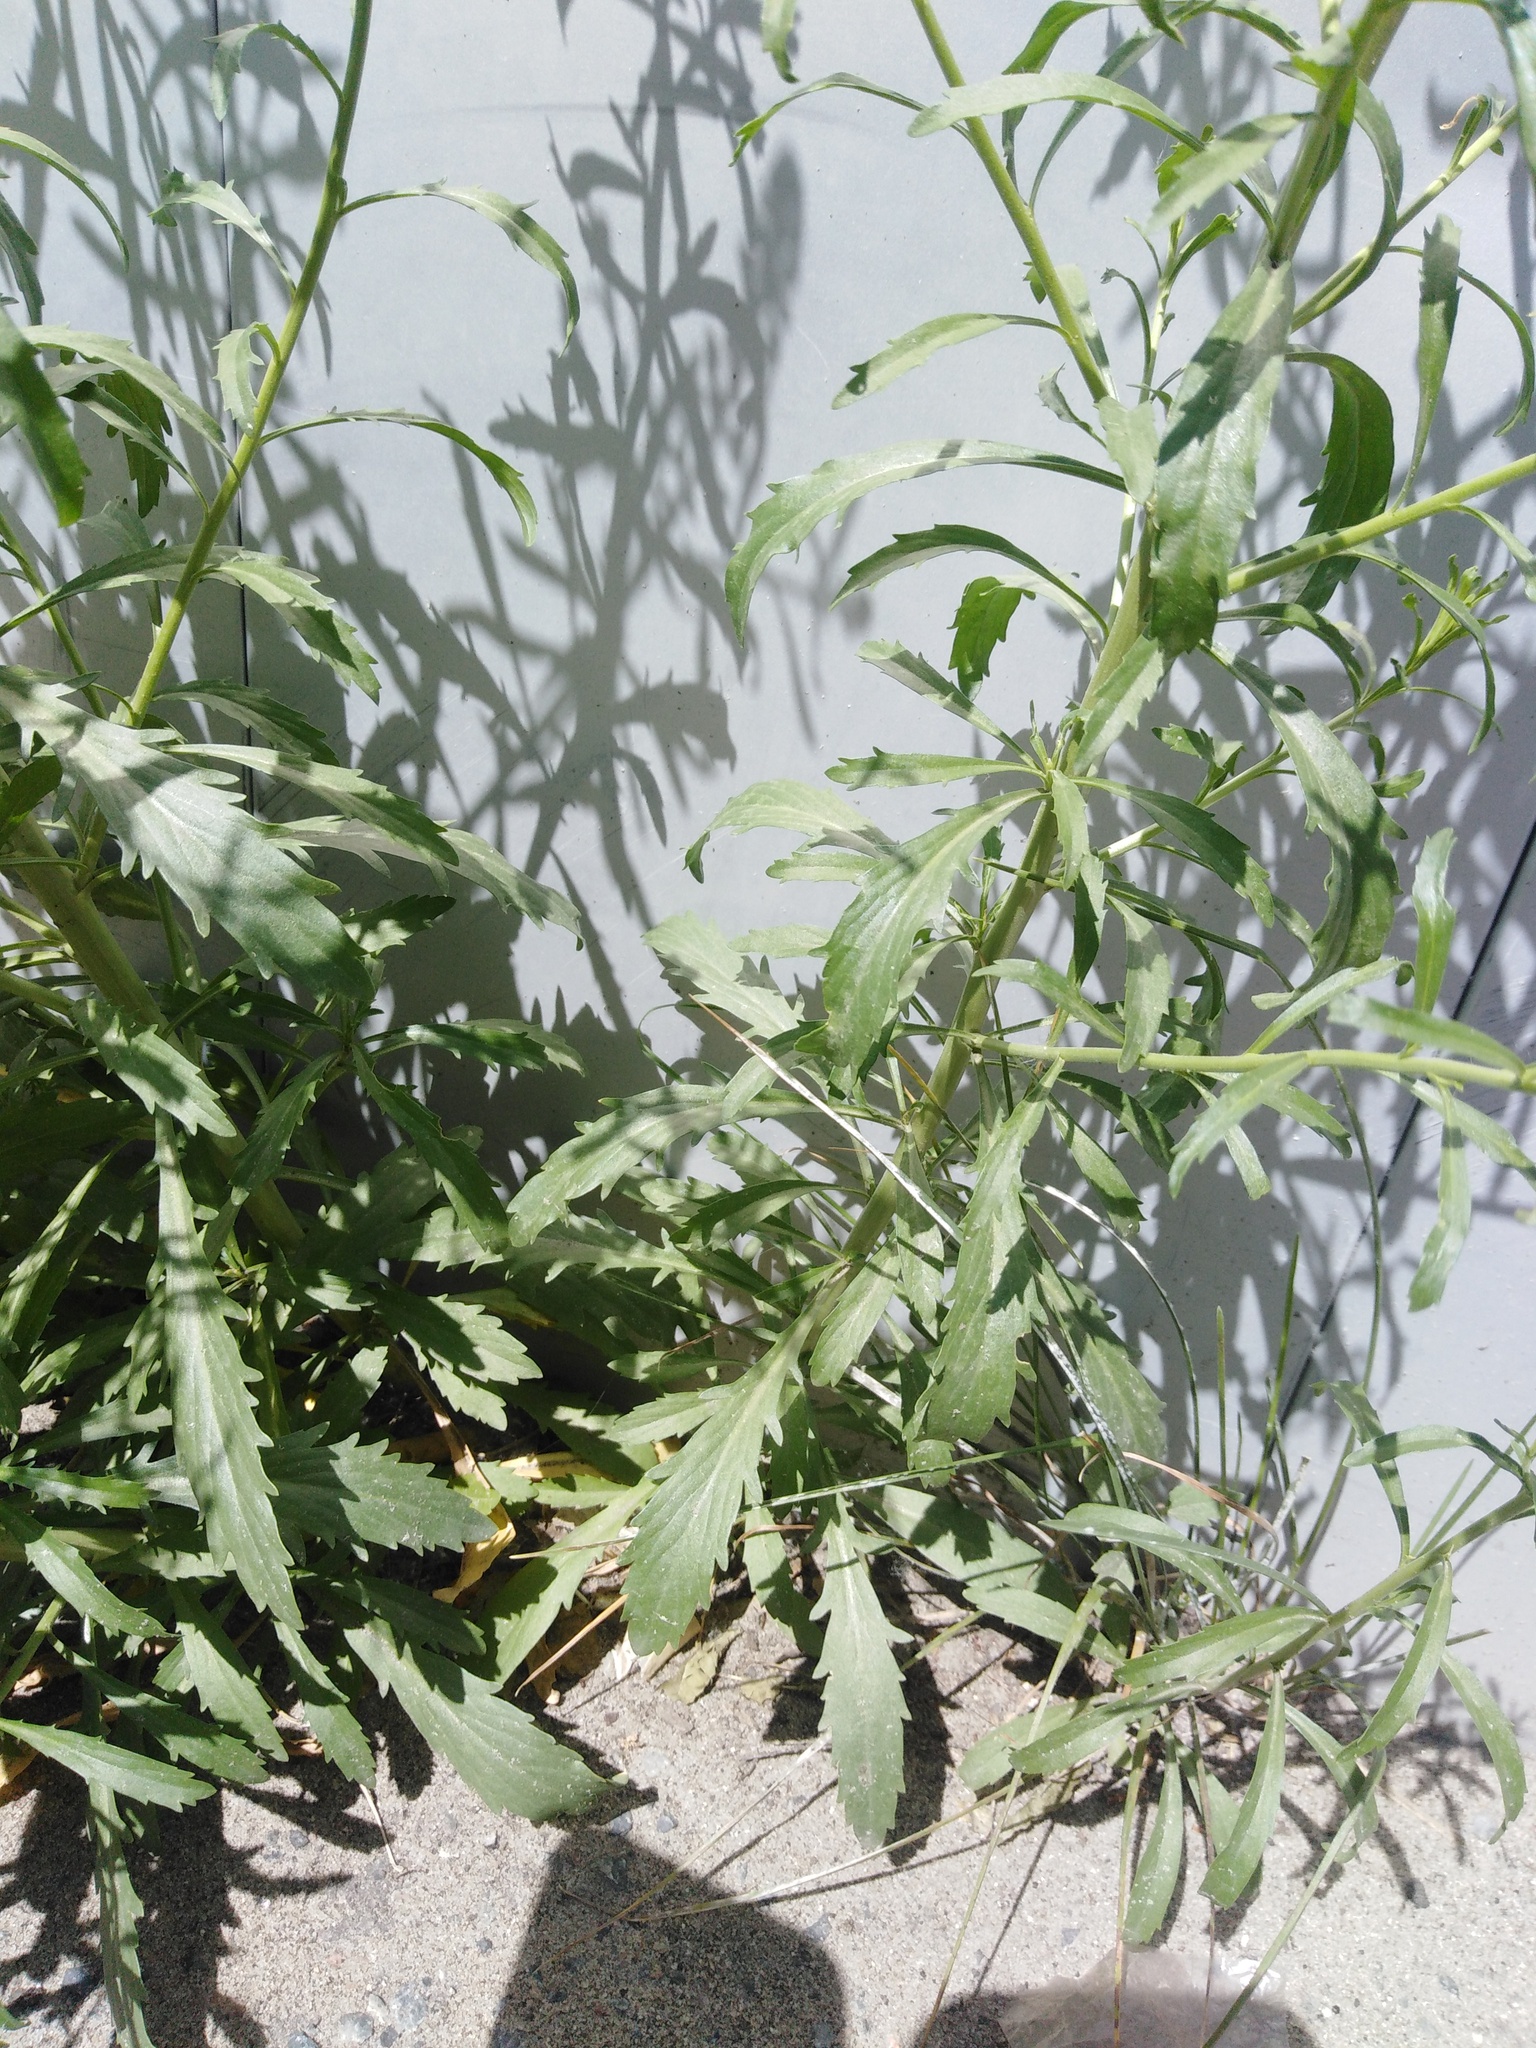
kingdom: Plantae
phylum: Tracheophyta
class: Magnoliopsida
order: Brassicales
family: Brassicaceae
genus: Lepidium
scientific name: Lepidium densiflorum
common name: Miner's pepperwort
